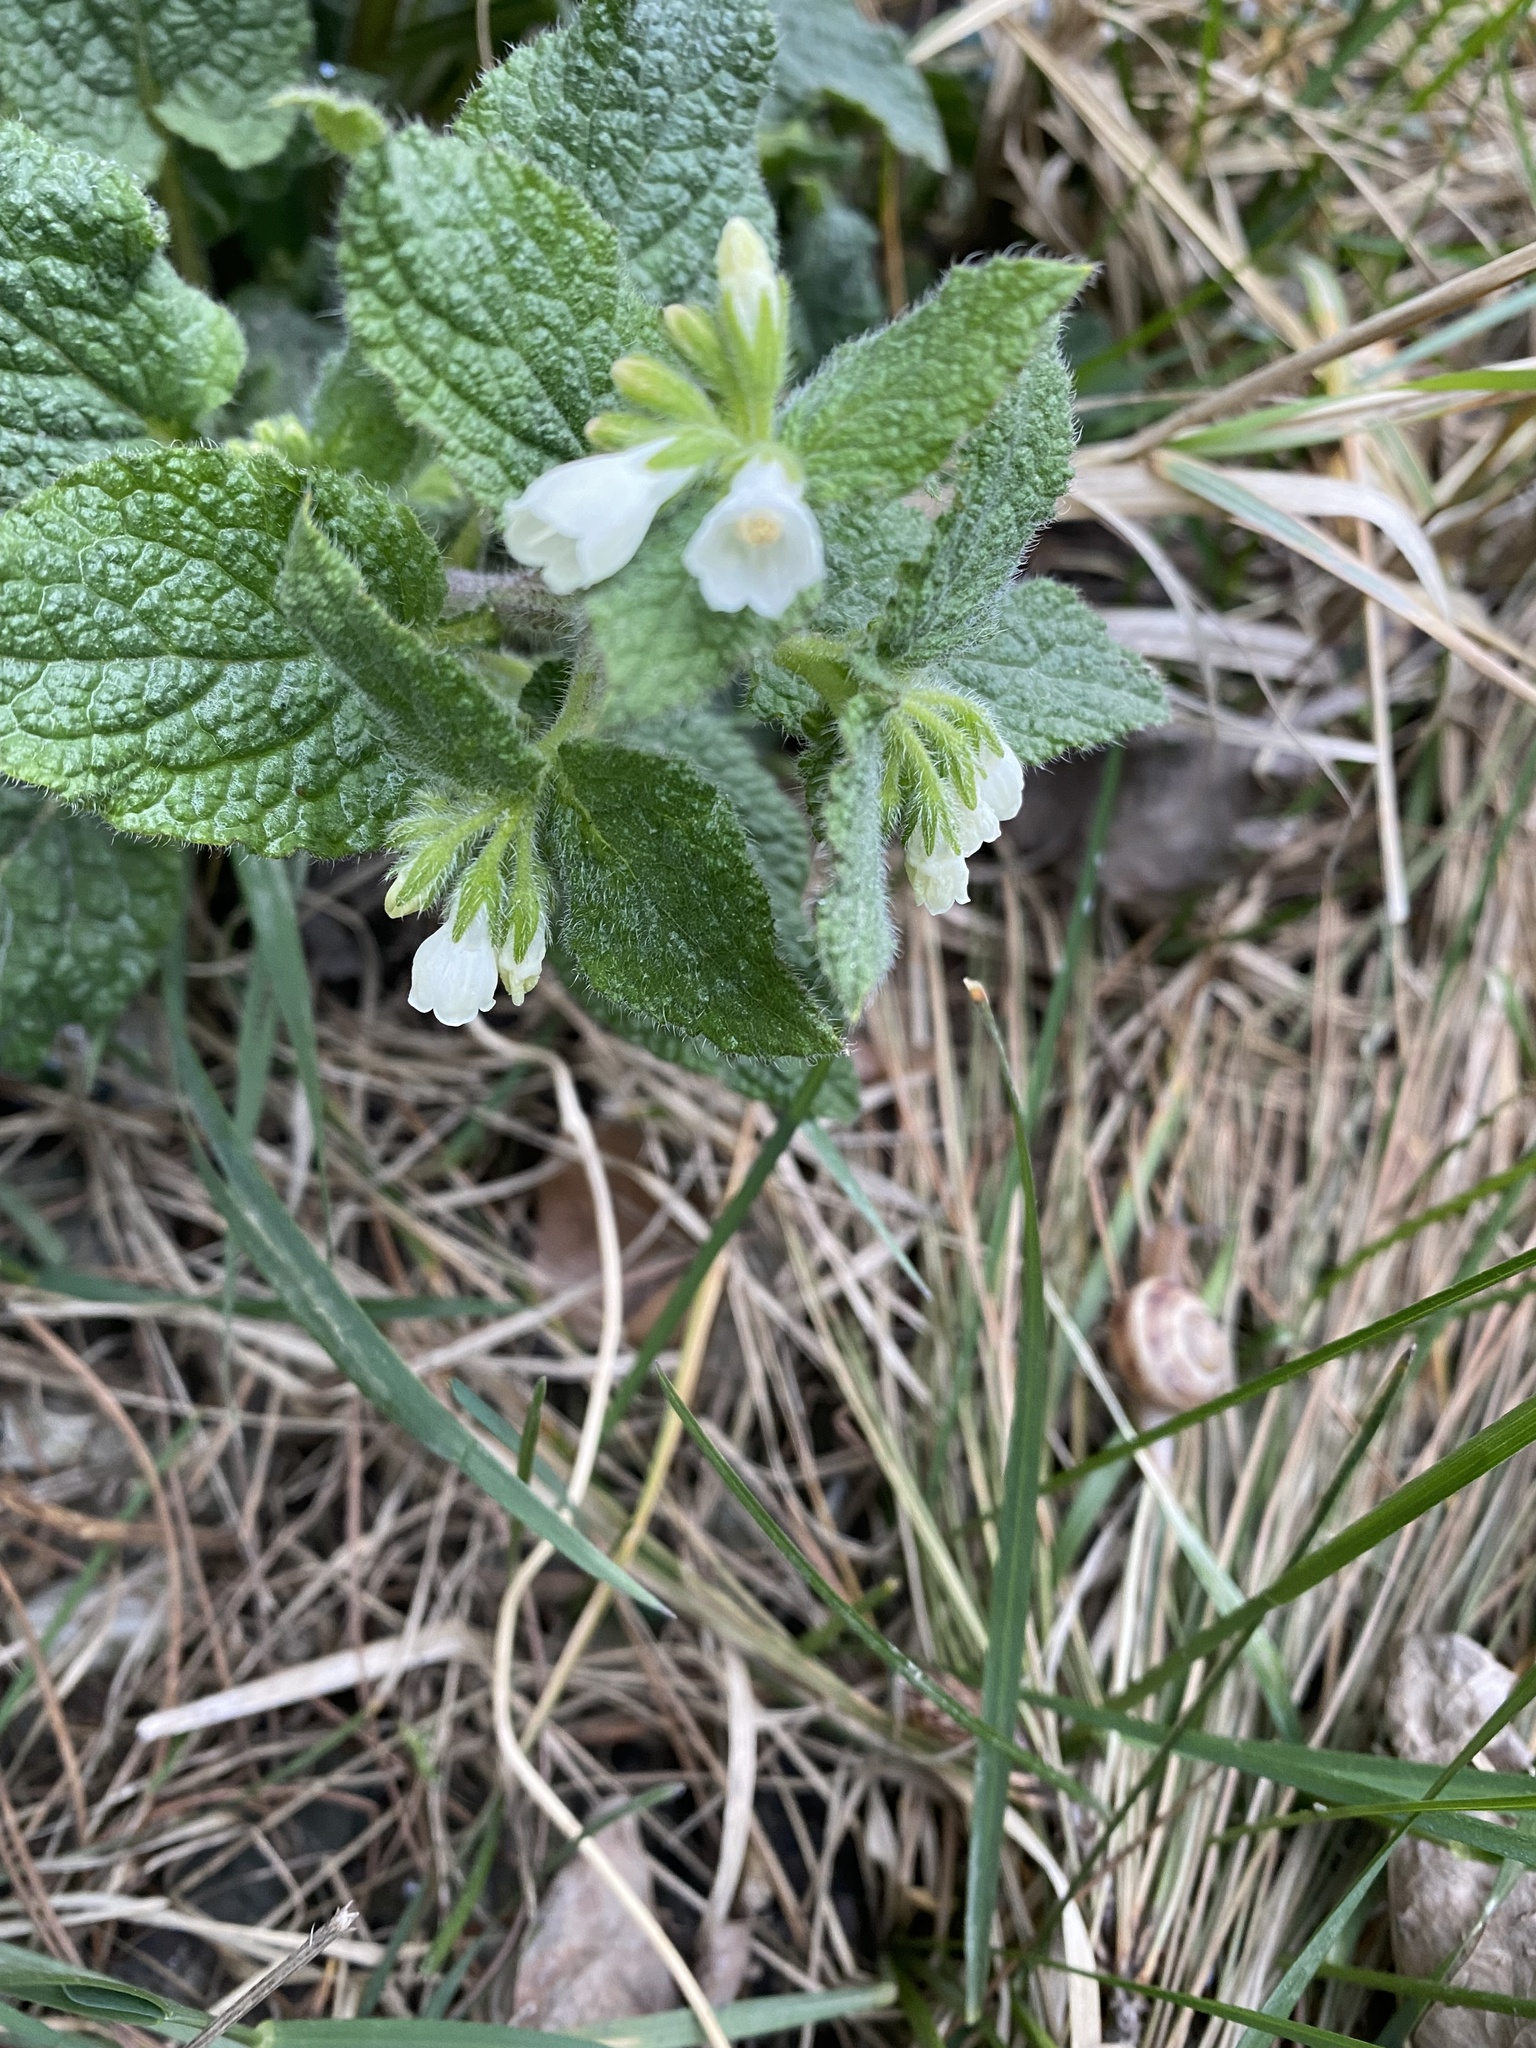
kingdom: Plantae
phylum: Tracheophyta
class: Magnoliopsida
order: Boraginales
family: Boraginaceae
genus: Symphytum
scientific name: Symphytum tauricum
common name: Crimean comfrey
